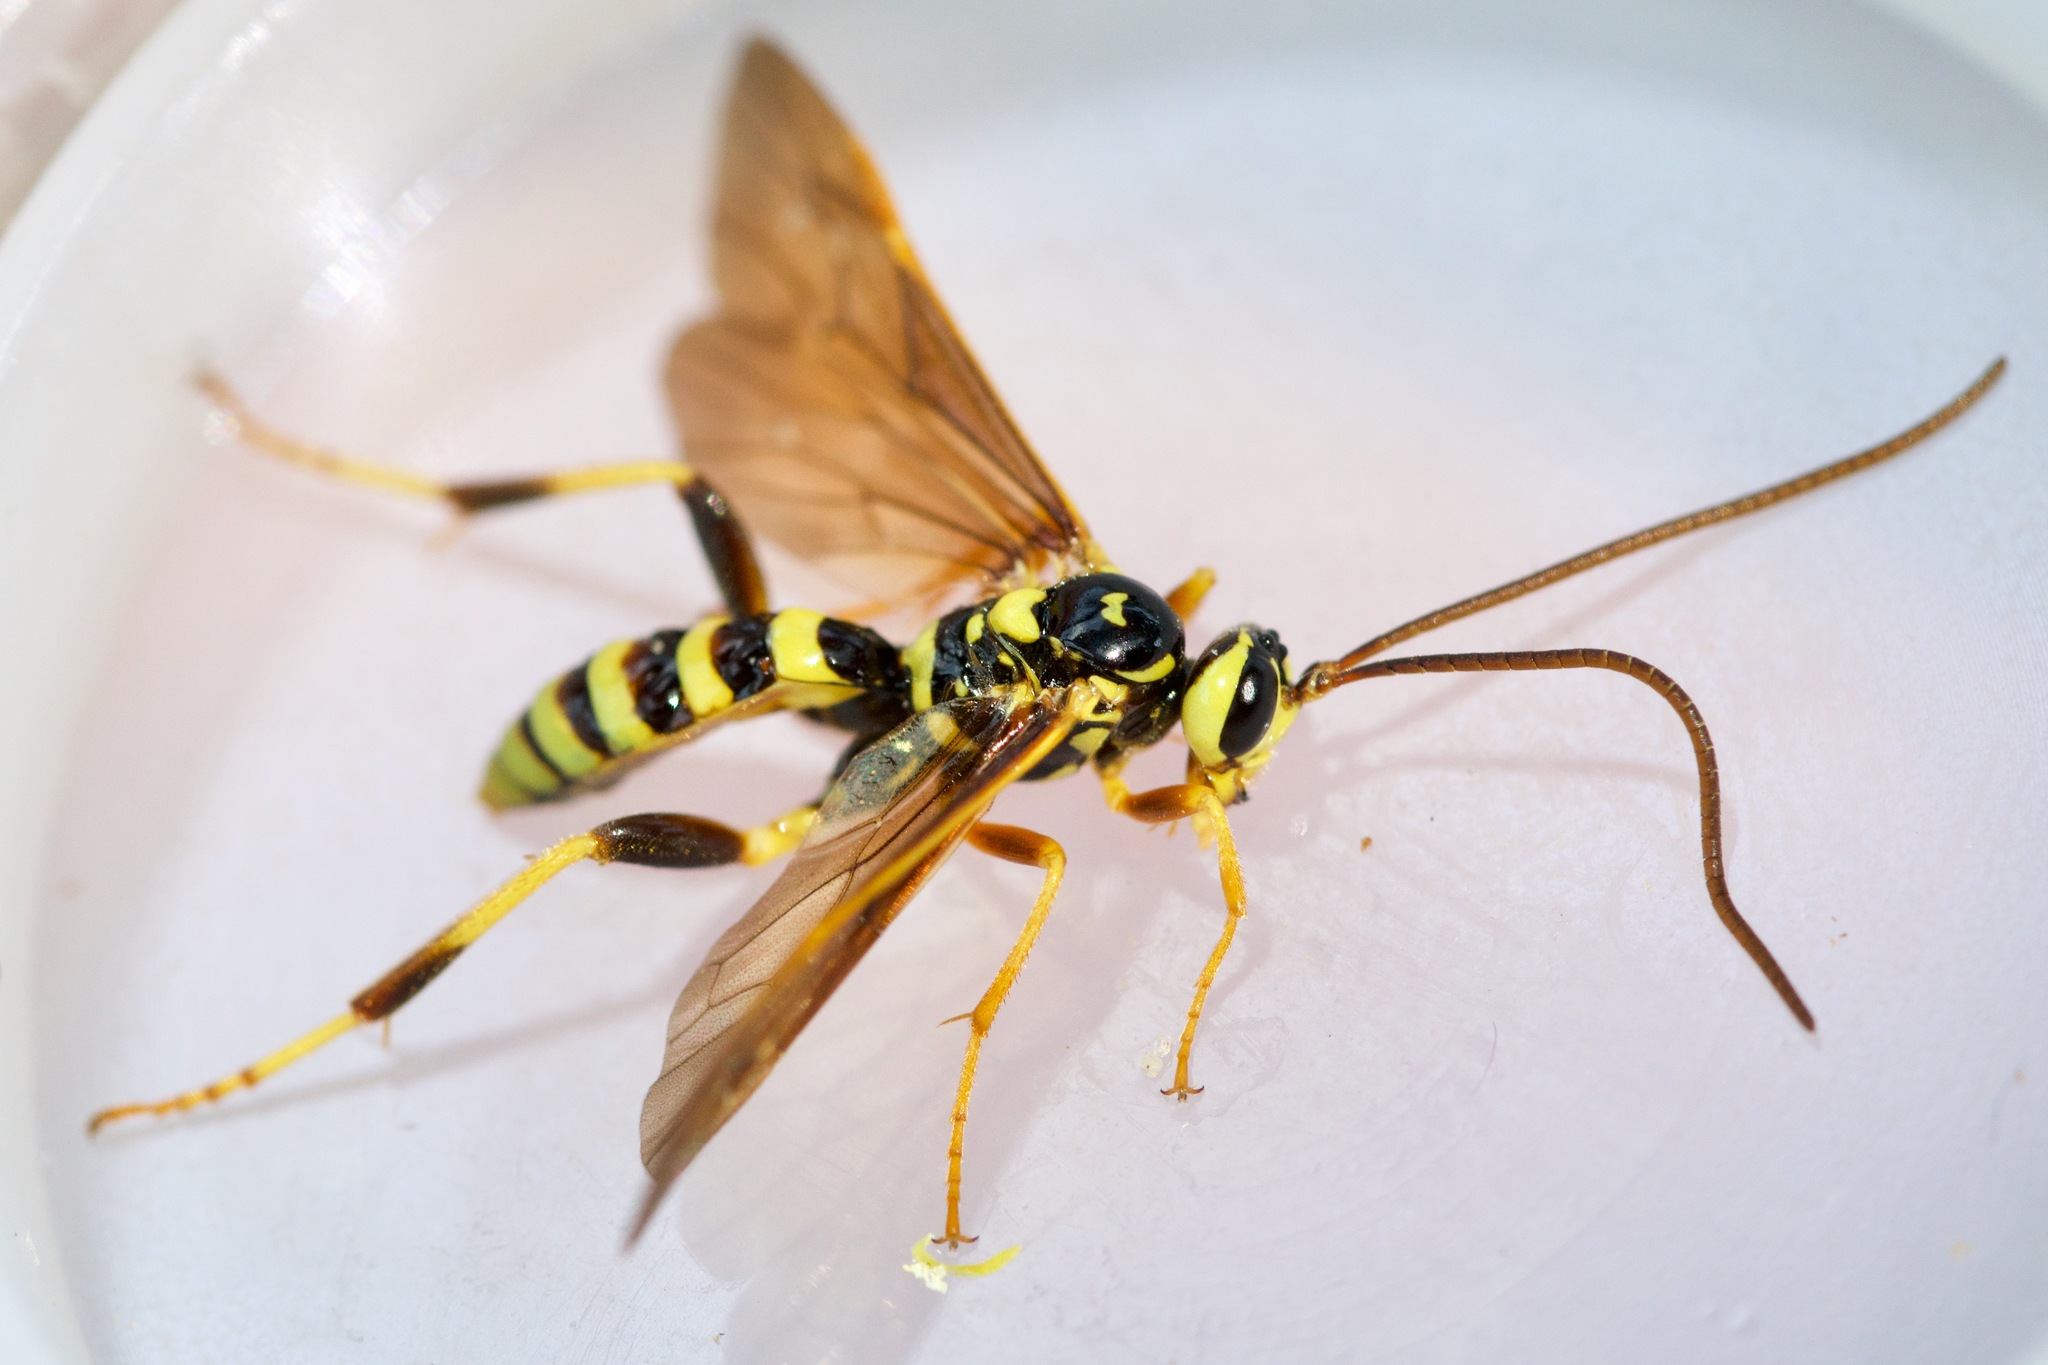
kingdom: Animalia
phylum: Arthropoda
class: Insecta
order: Hymenoptera
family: Ichneumonidae
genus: Ceratogastra
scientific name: Ceratogastra ornata
